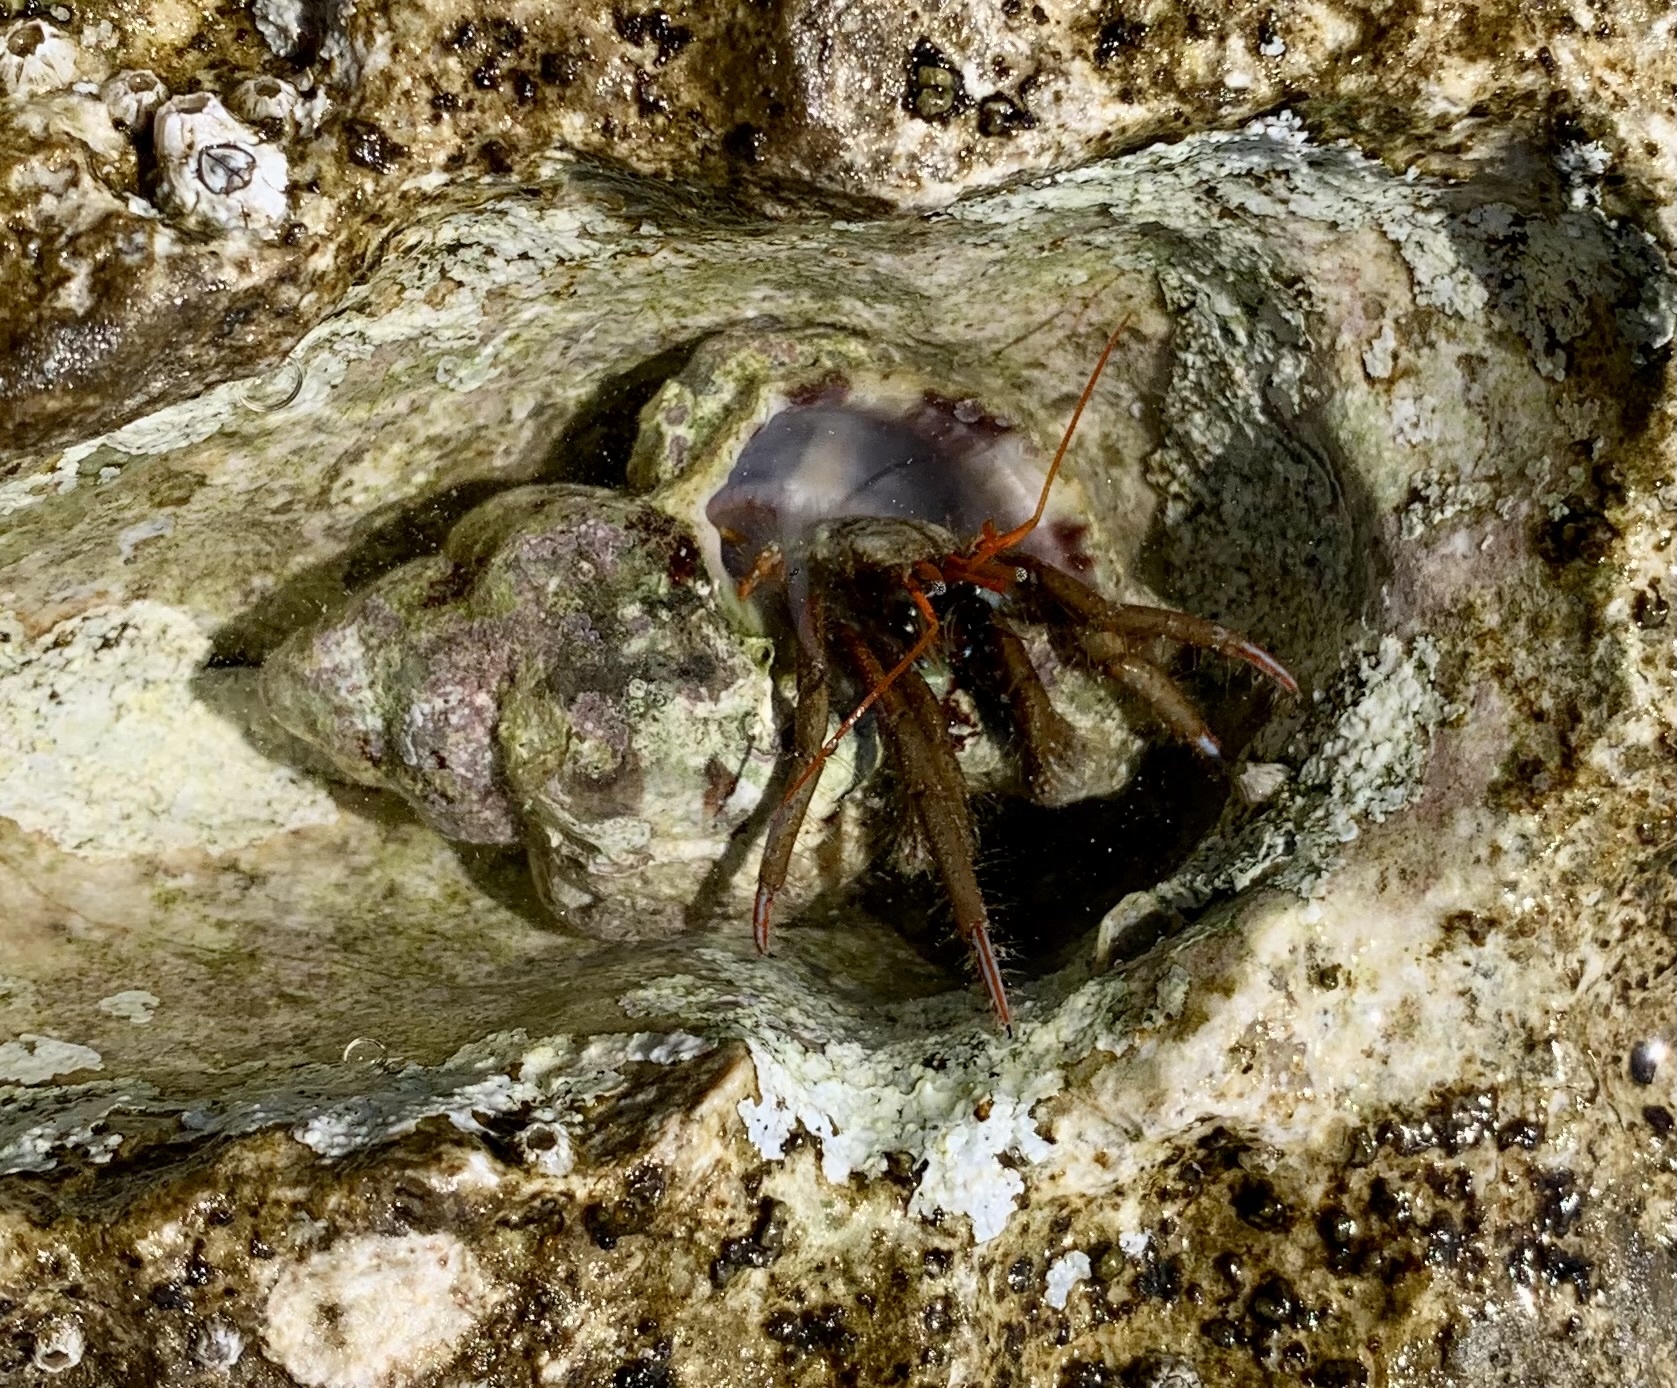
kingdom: Animalia
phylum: Arthropoda
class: Malacostraca
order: Decapoda
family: Diogenidae
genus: Clibanarius
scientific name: Clibanarius erythropus
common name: Hermit crab
